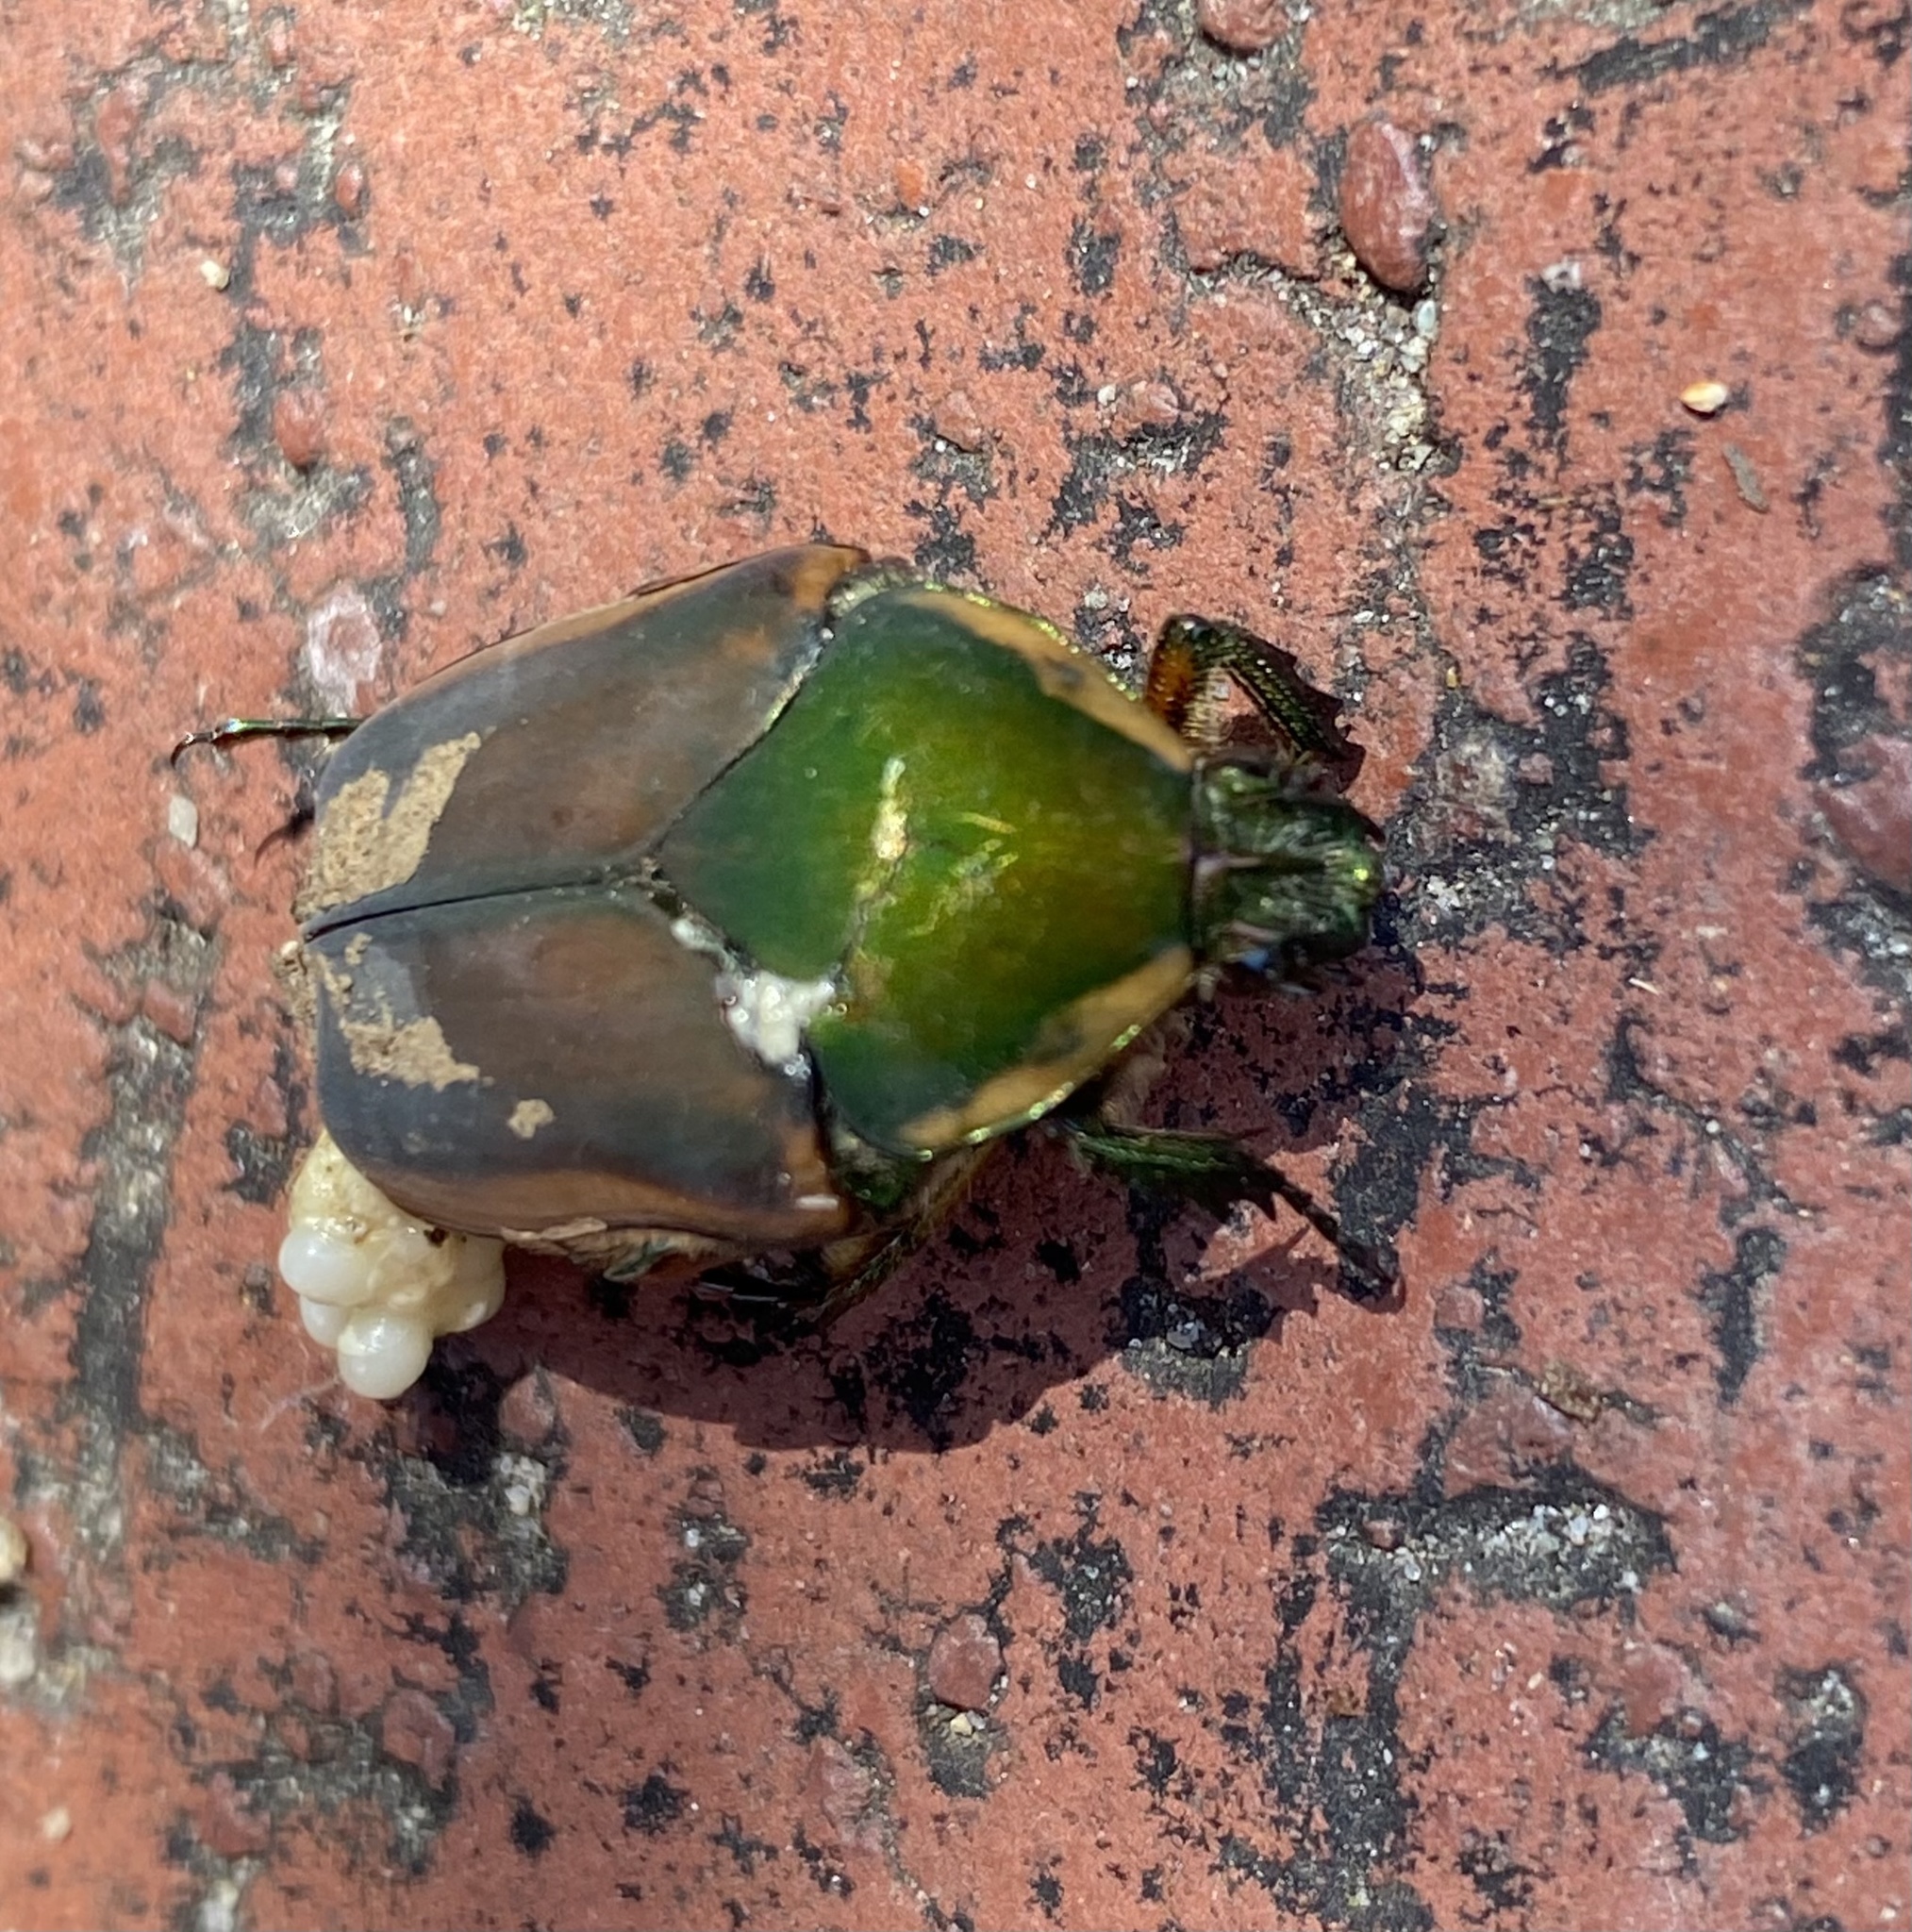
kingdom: Animalia
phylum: Arthropoda
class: Insecta
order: Coleoptera
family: Scarabaeidae
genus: Cotinis
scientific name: Cotinis nitida
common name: Common green june beetle
